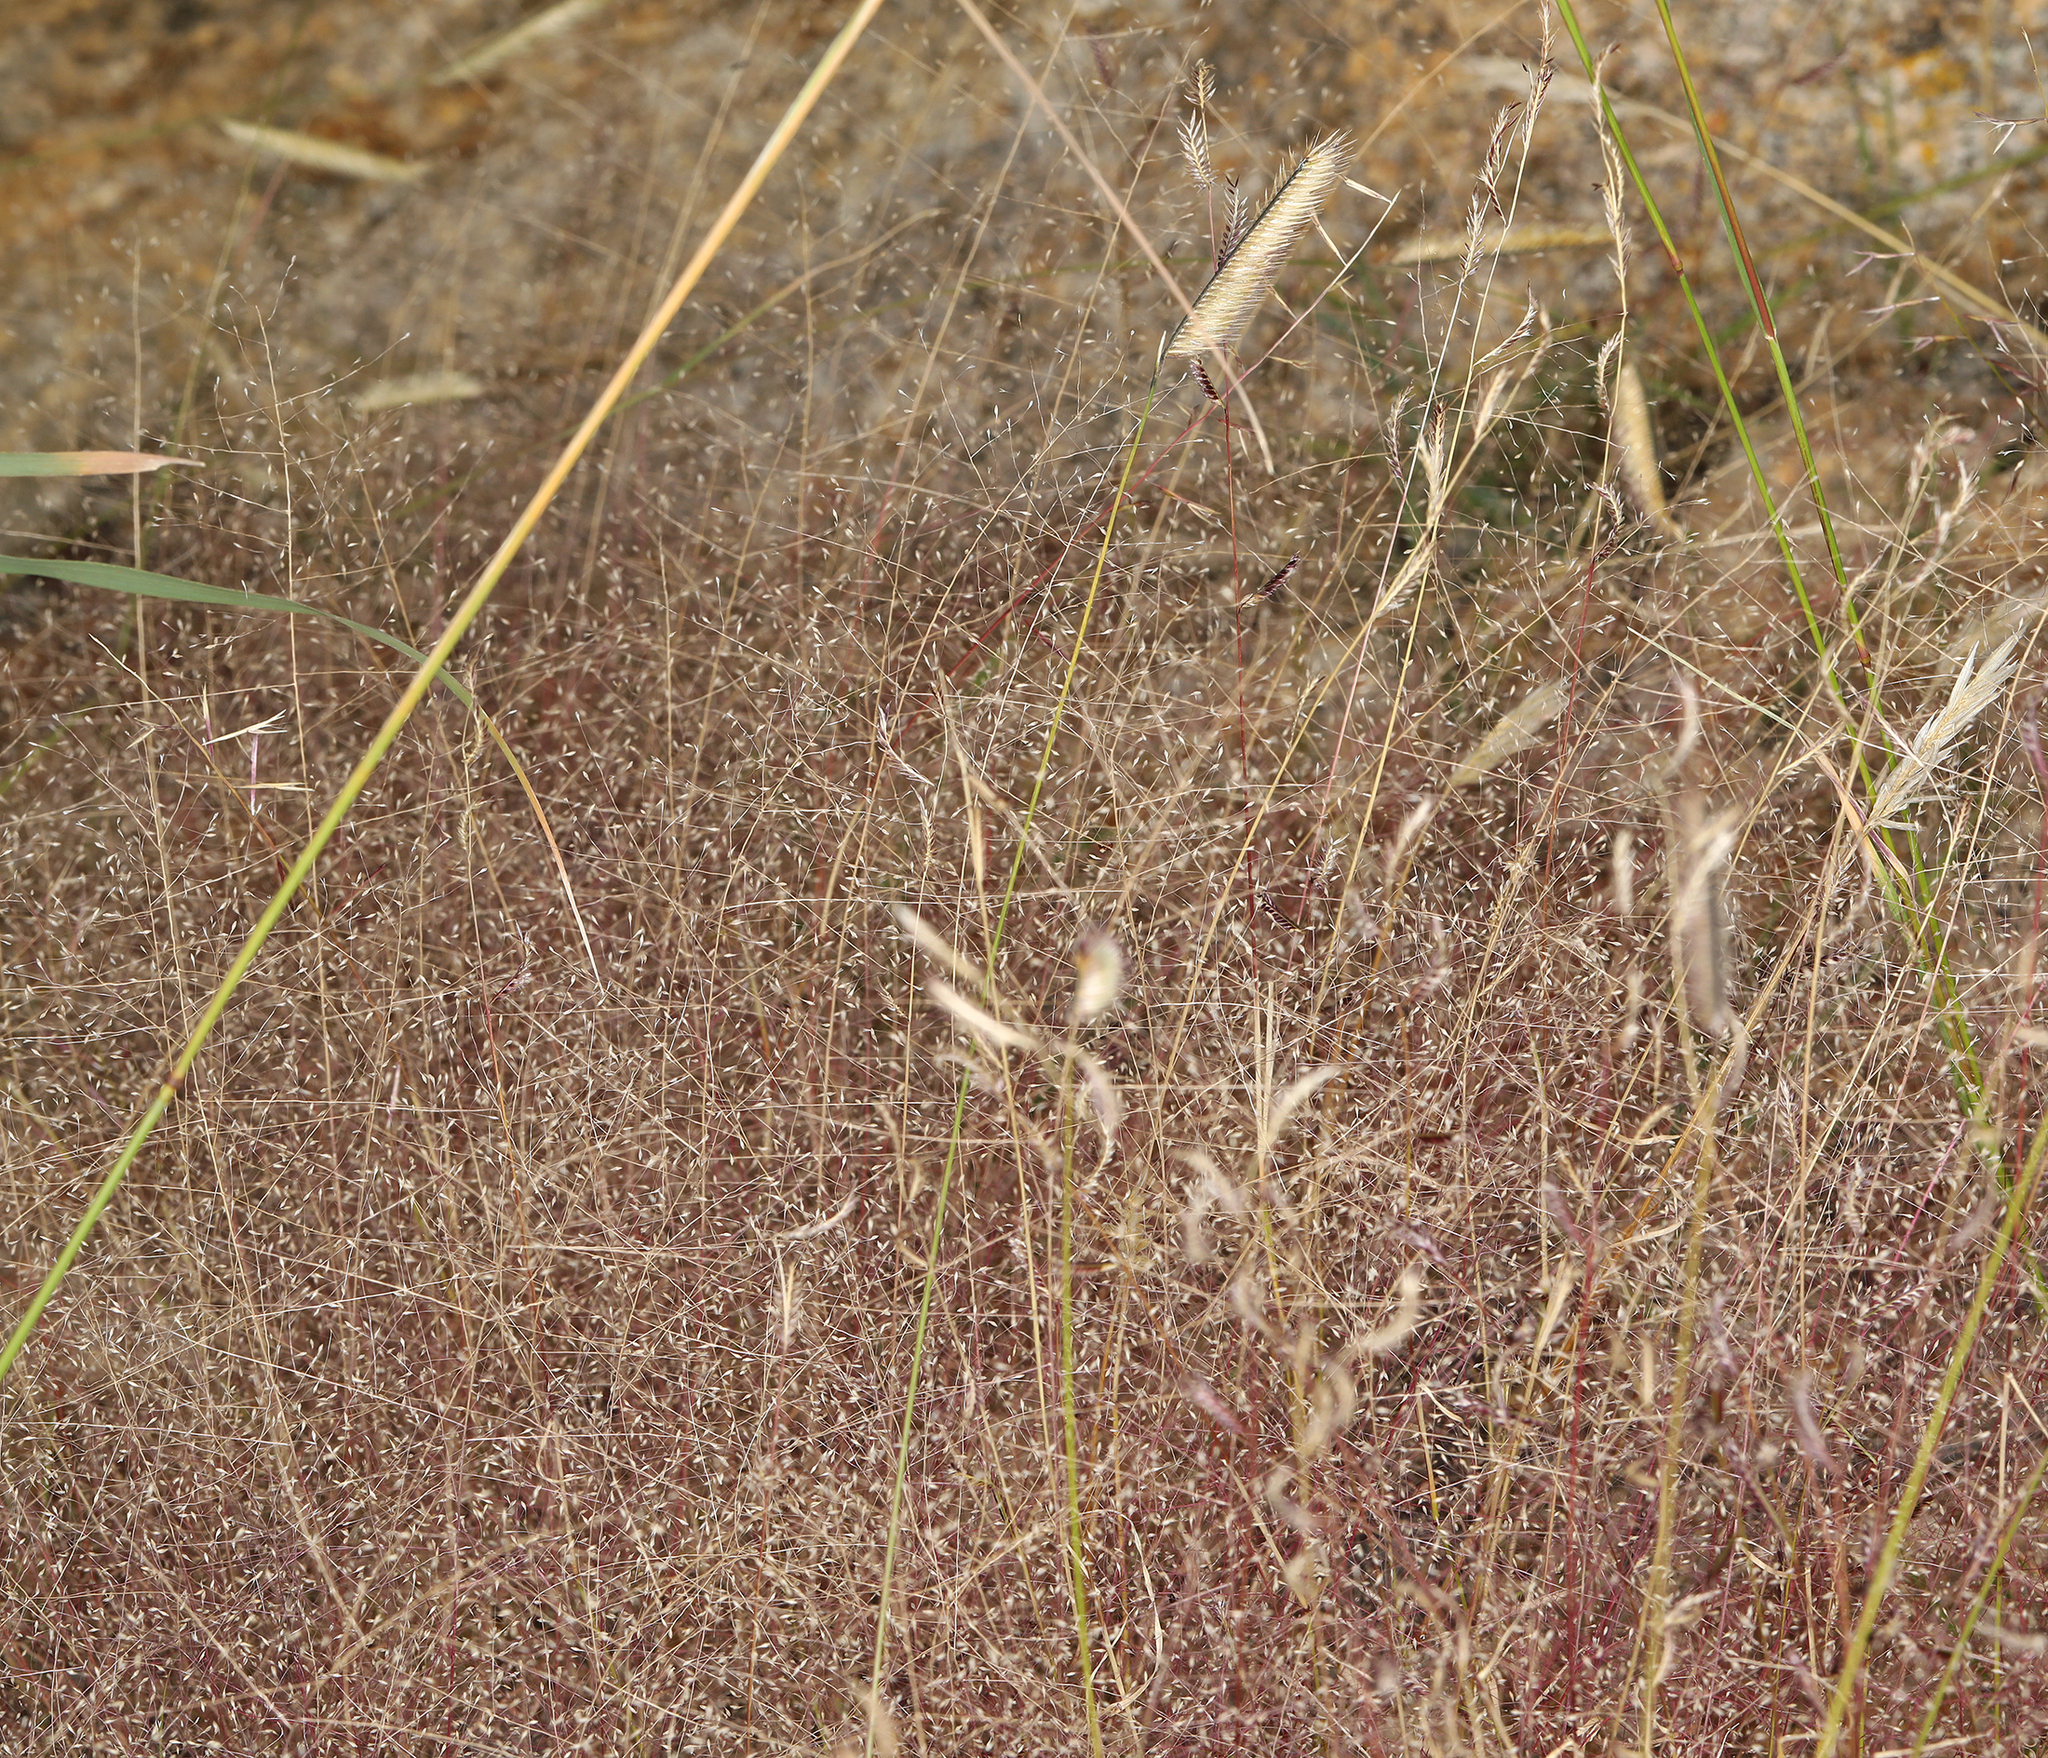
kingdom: Plantae
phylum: Tracheophyta
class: Liliopsida
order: Poales
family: Poaceae
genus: Muhlenbergia
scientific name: Muhlenbergia fragilis
